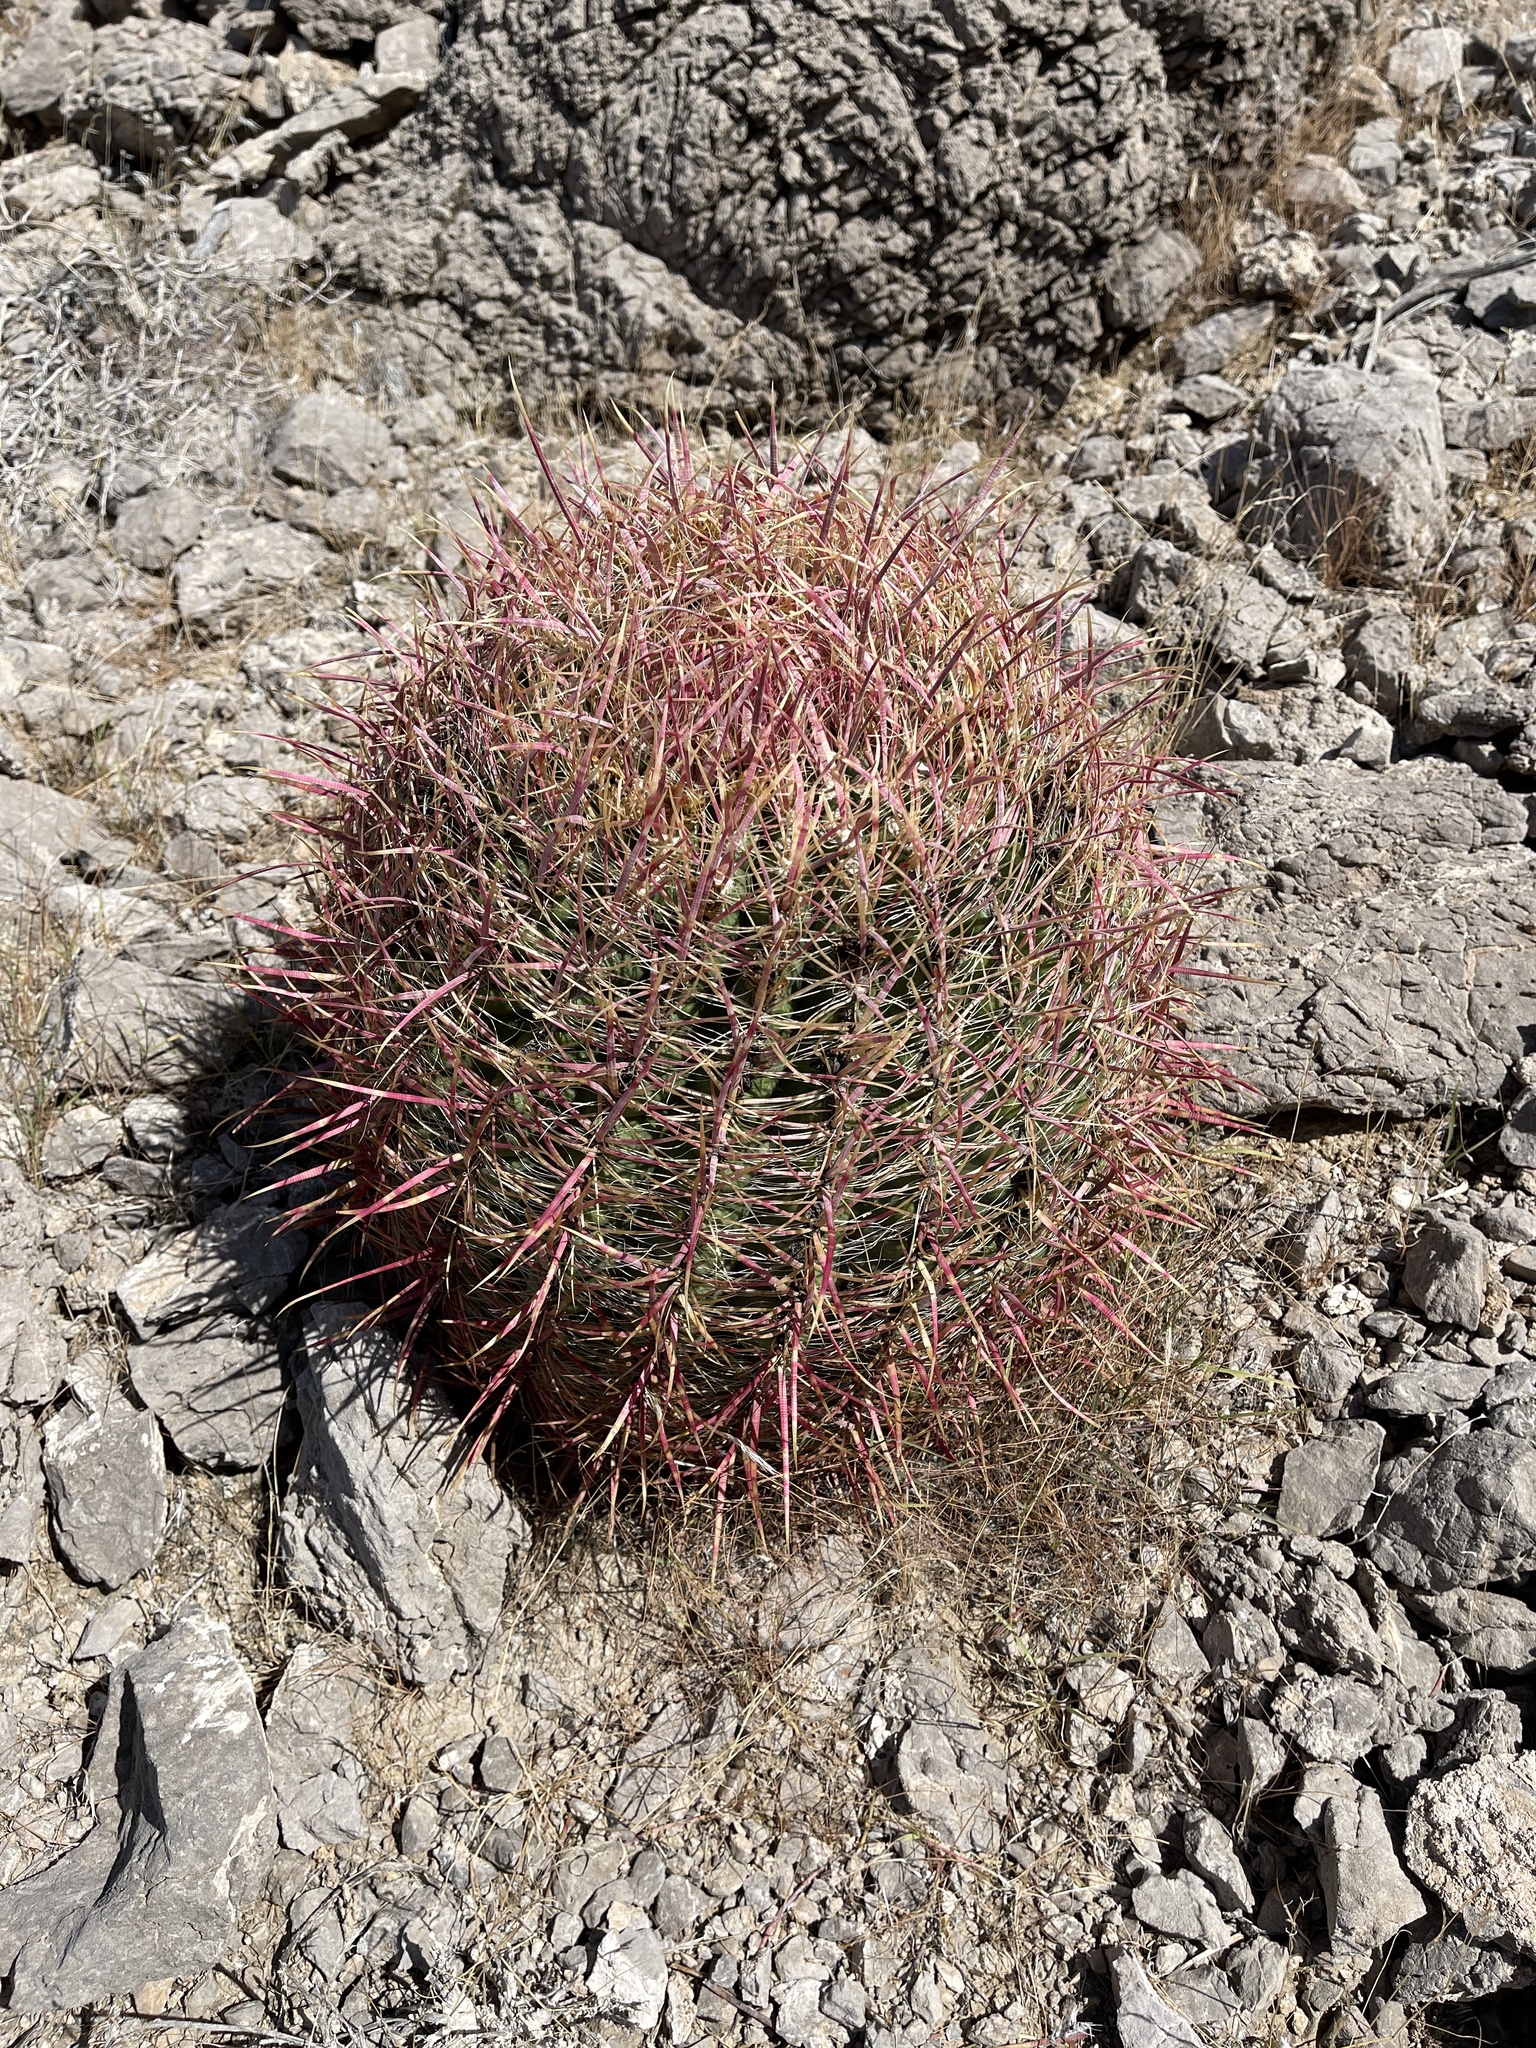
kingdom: Plantae
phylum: Tracheophyta
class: Magnoliopsida
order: Caryophyllales
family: Cactaceae
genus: Ferocactus
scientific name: Ferocactus cylindraceus
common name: California barrel cactus
